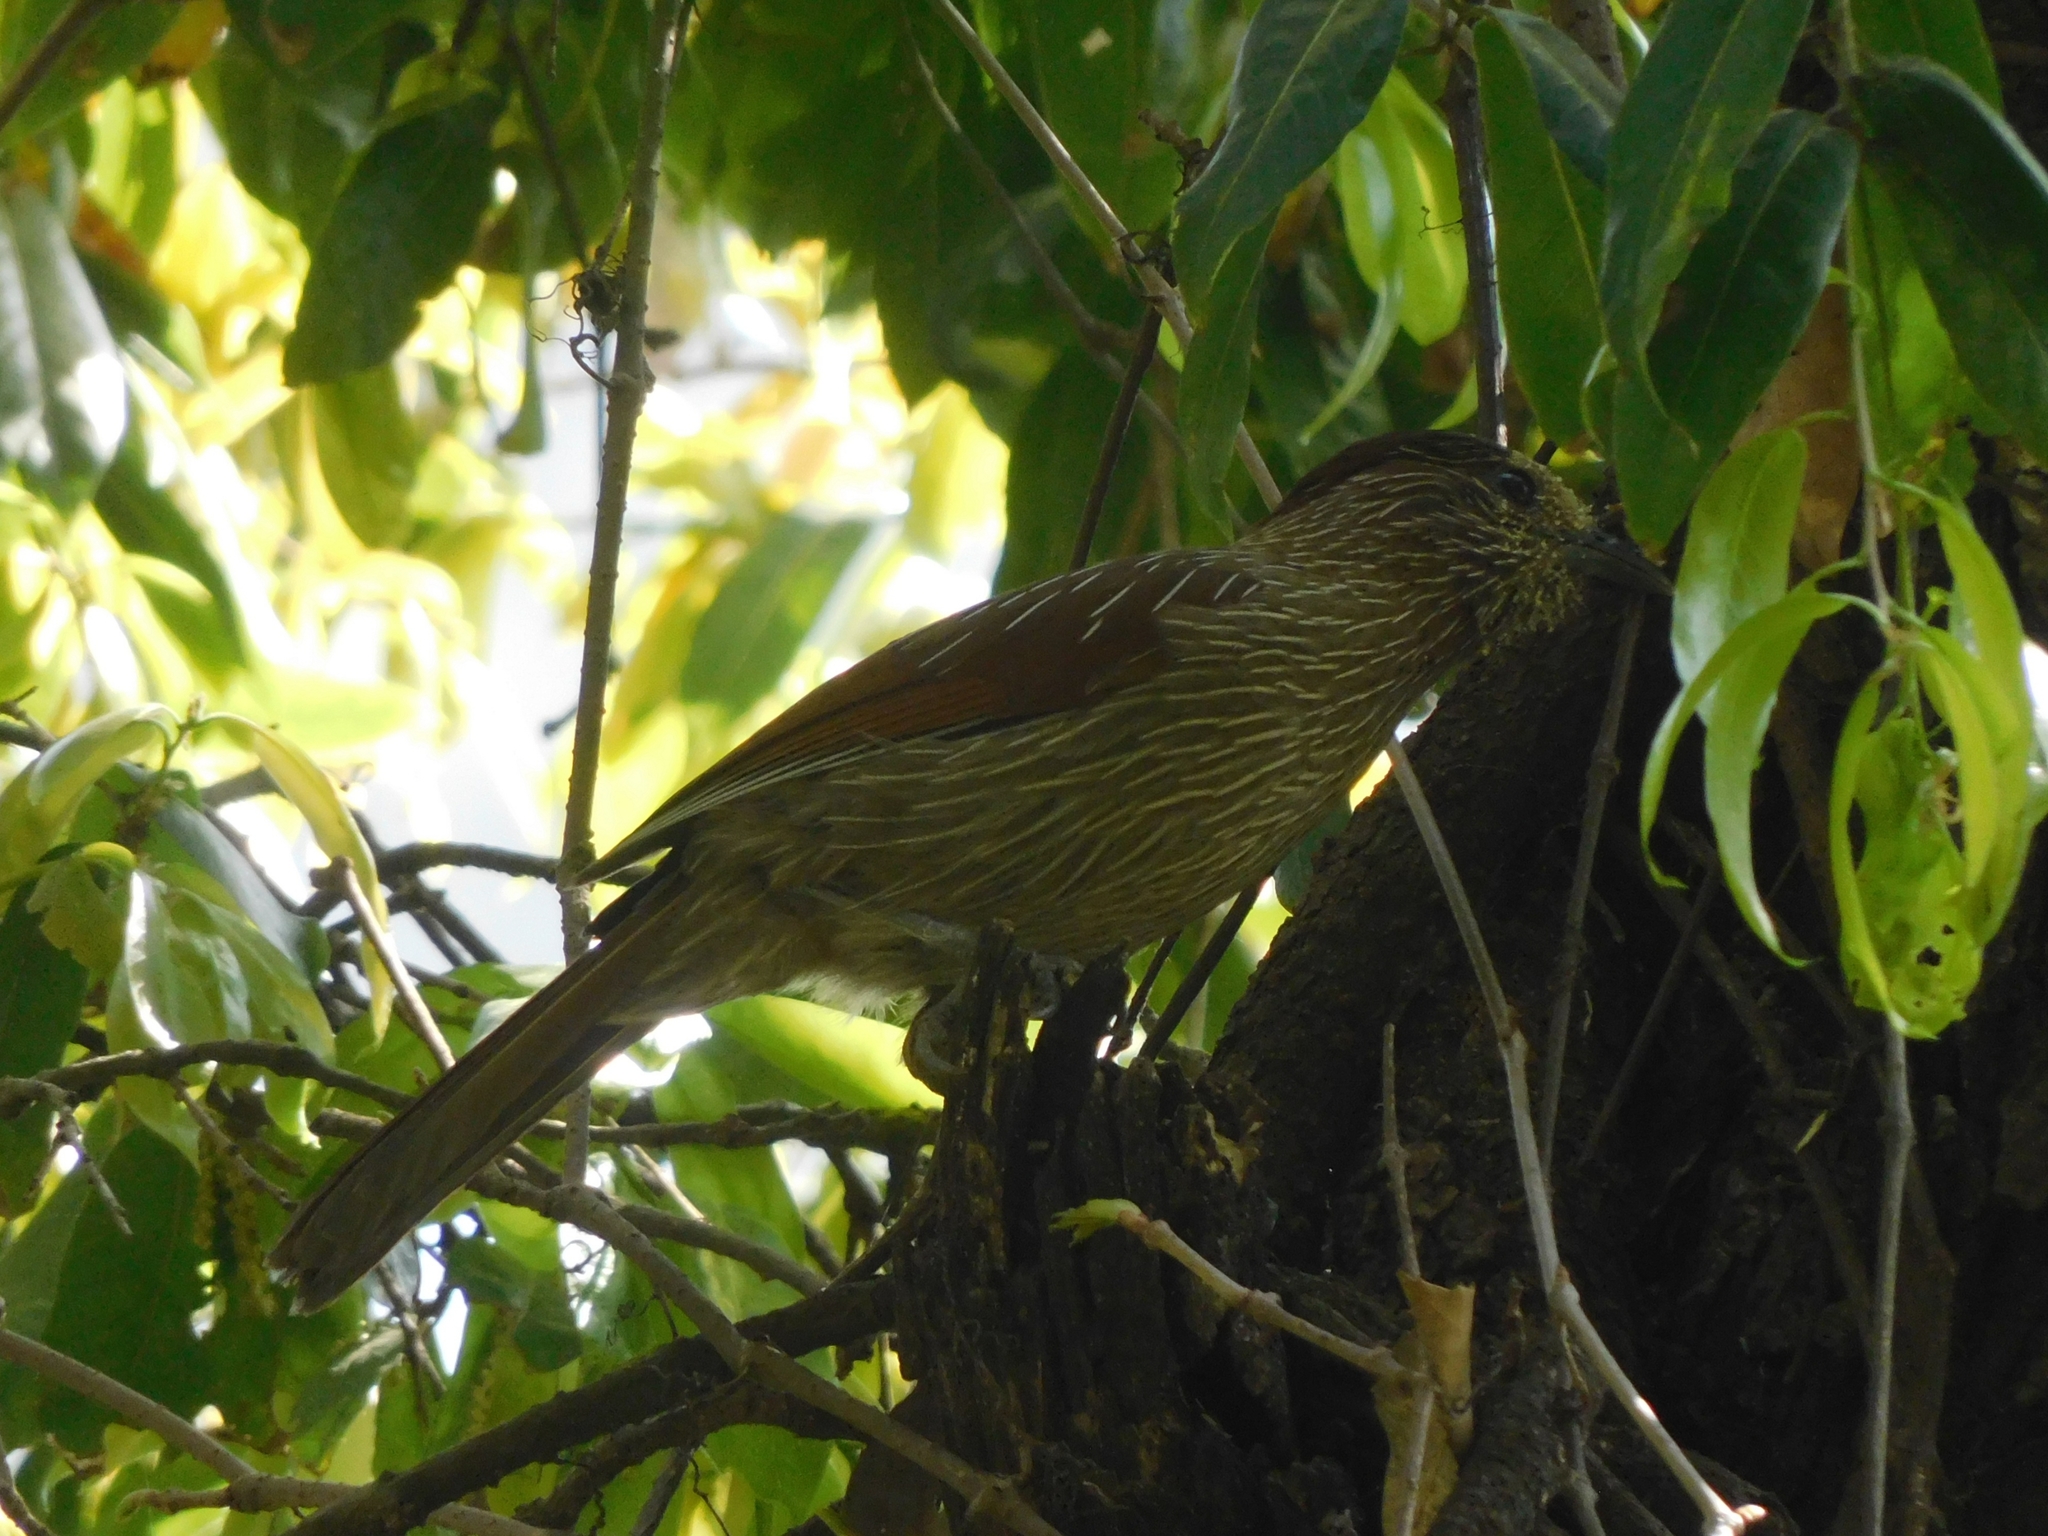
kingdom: Animalia
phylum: Chordata
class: Aves
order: Passeriformes
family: Leiothrichidae
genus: Garrulax
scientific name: Garrulax striatus
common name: Striated laughingthrush
